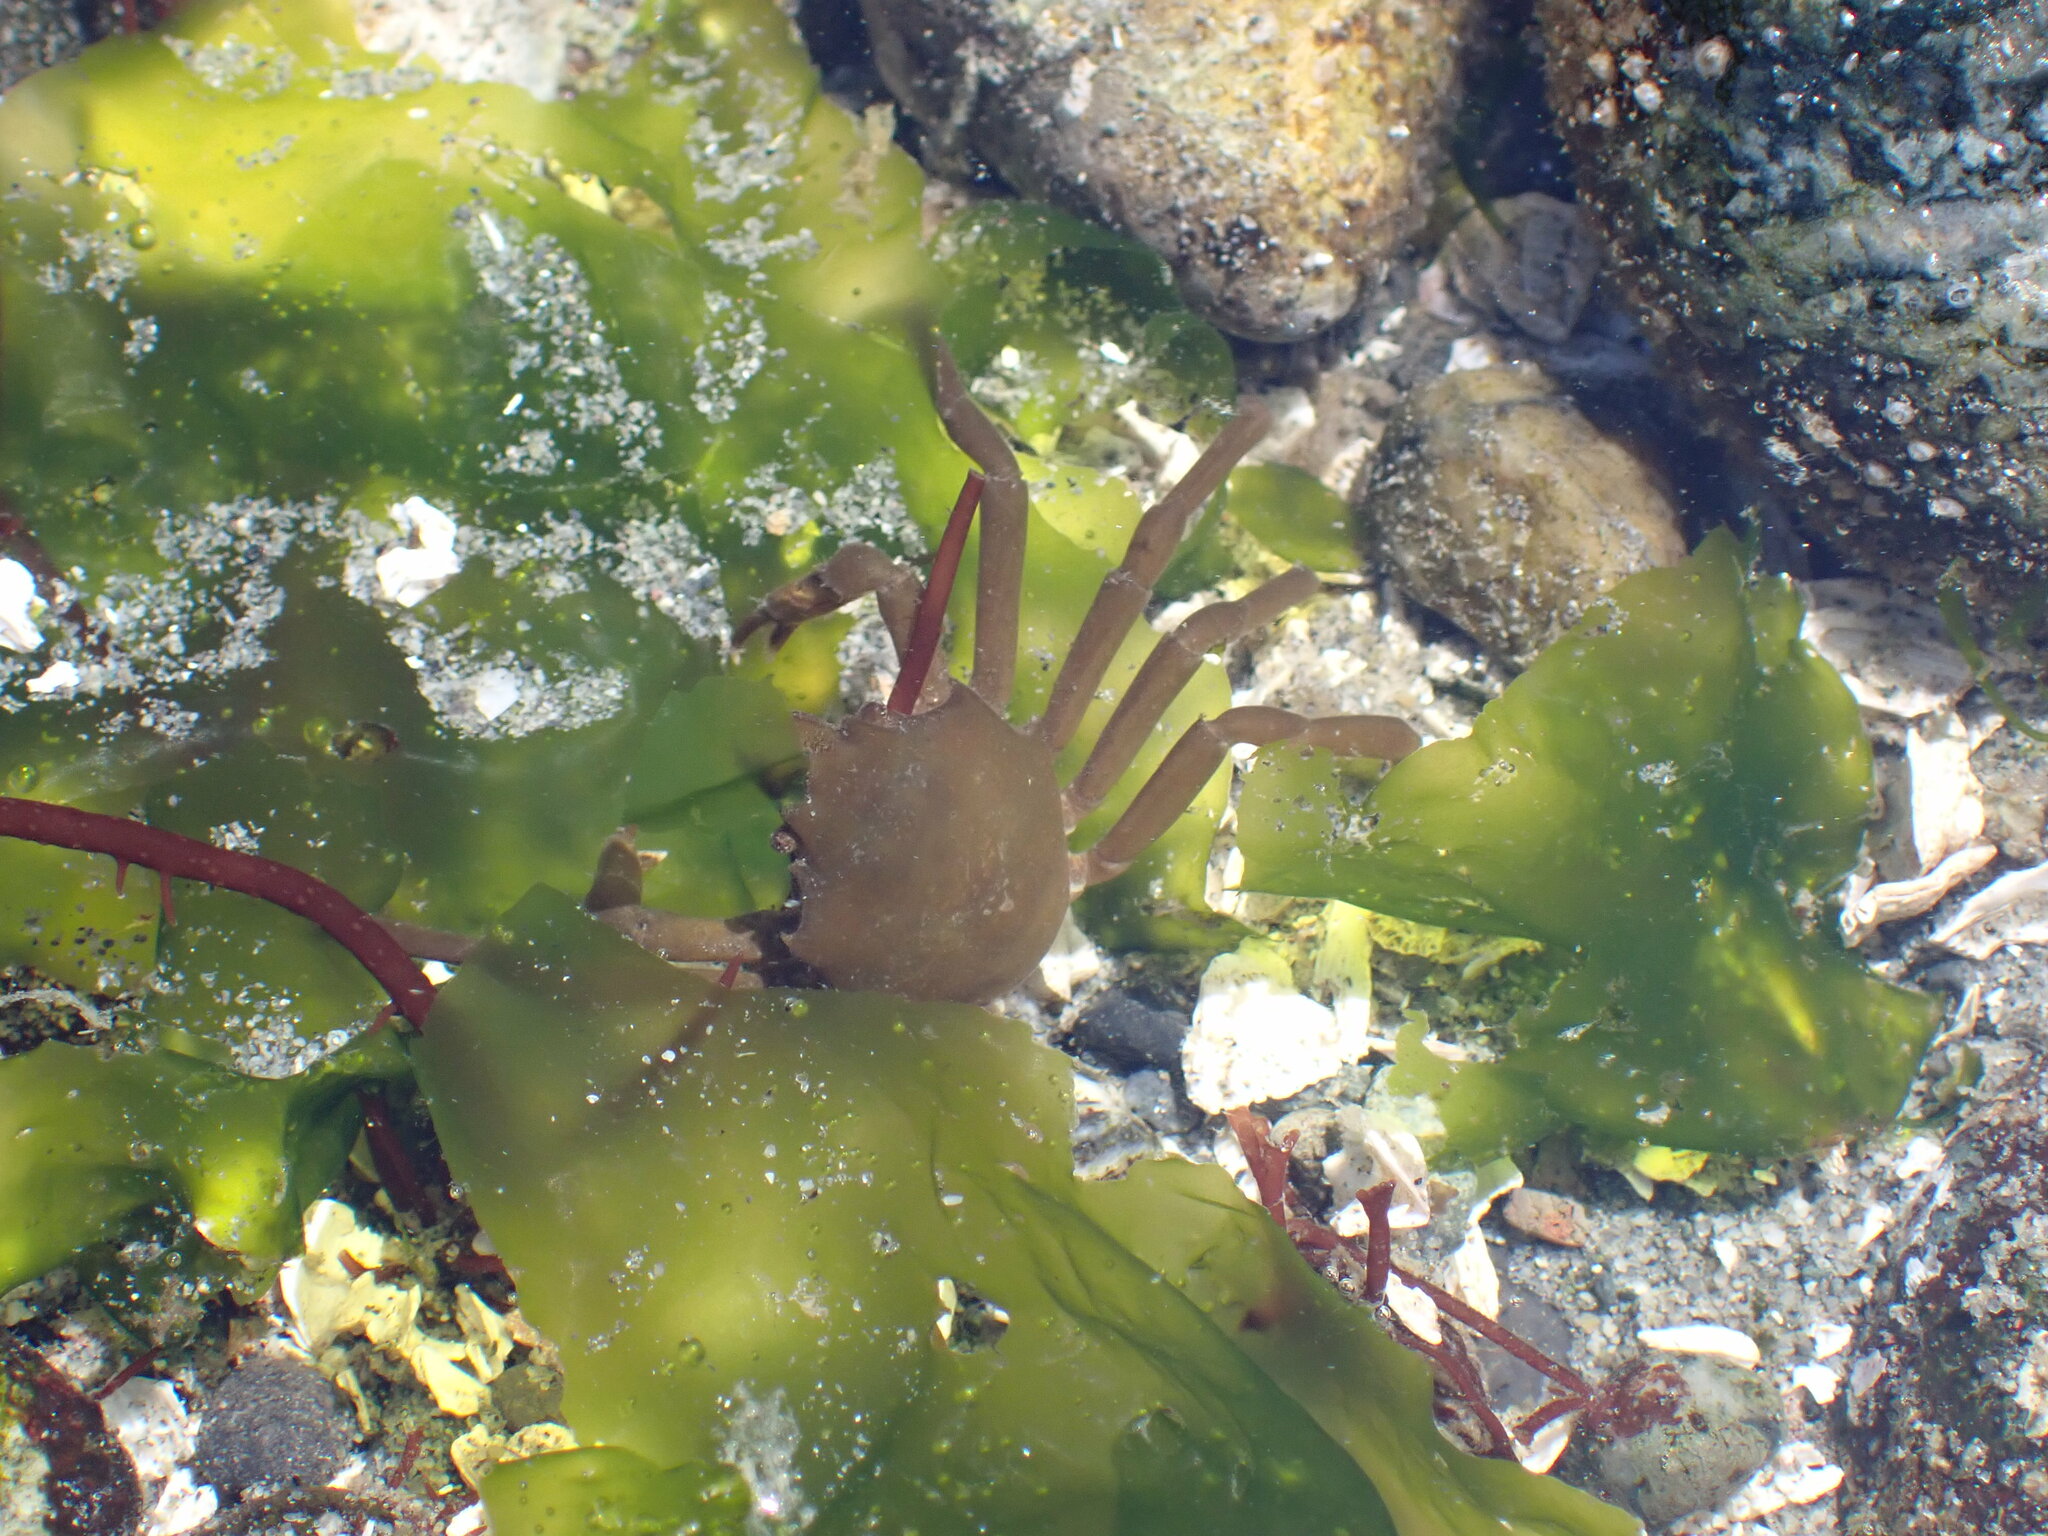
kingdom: Animalia
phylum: Arthropoda
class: Malacostraca
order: Decapoda
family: Epialtidae
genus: Pugettia
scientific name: Pugettia producta
